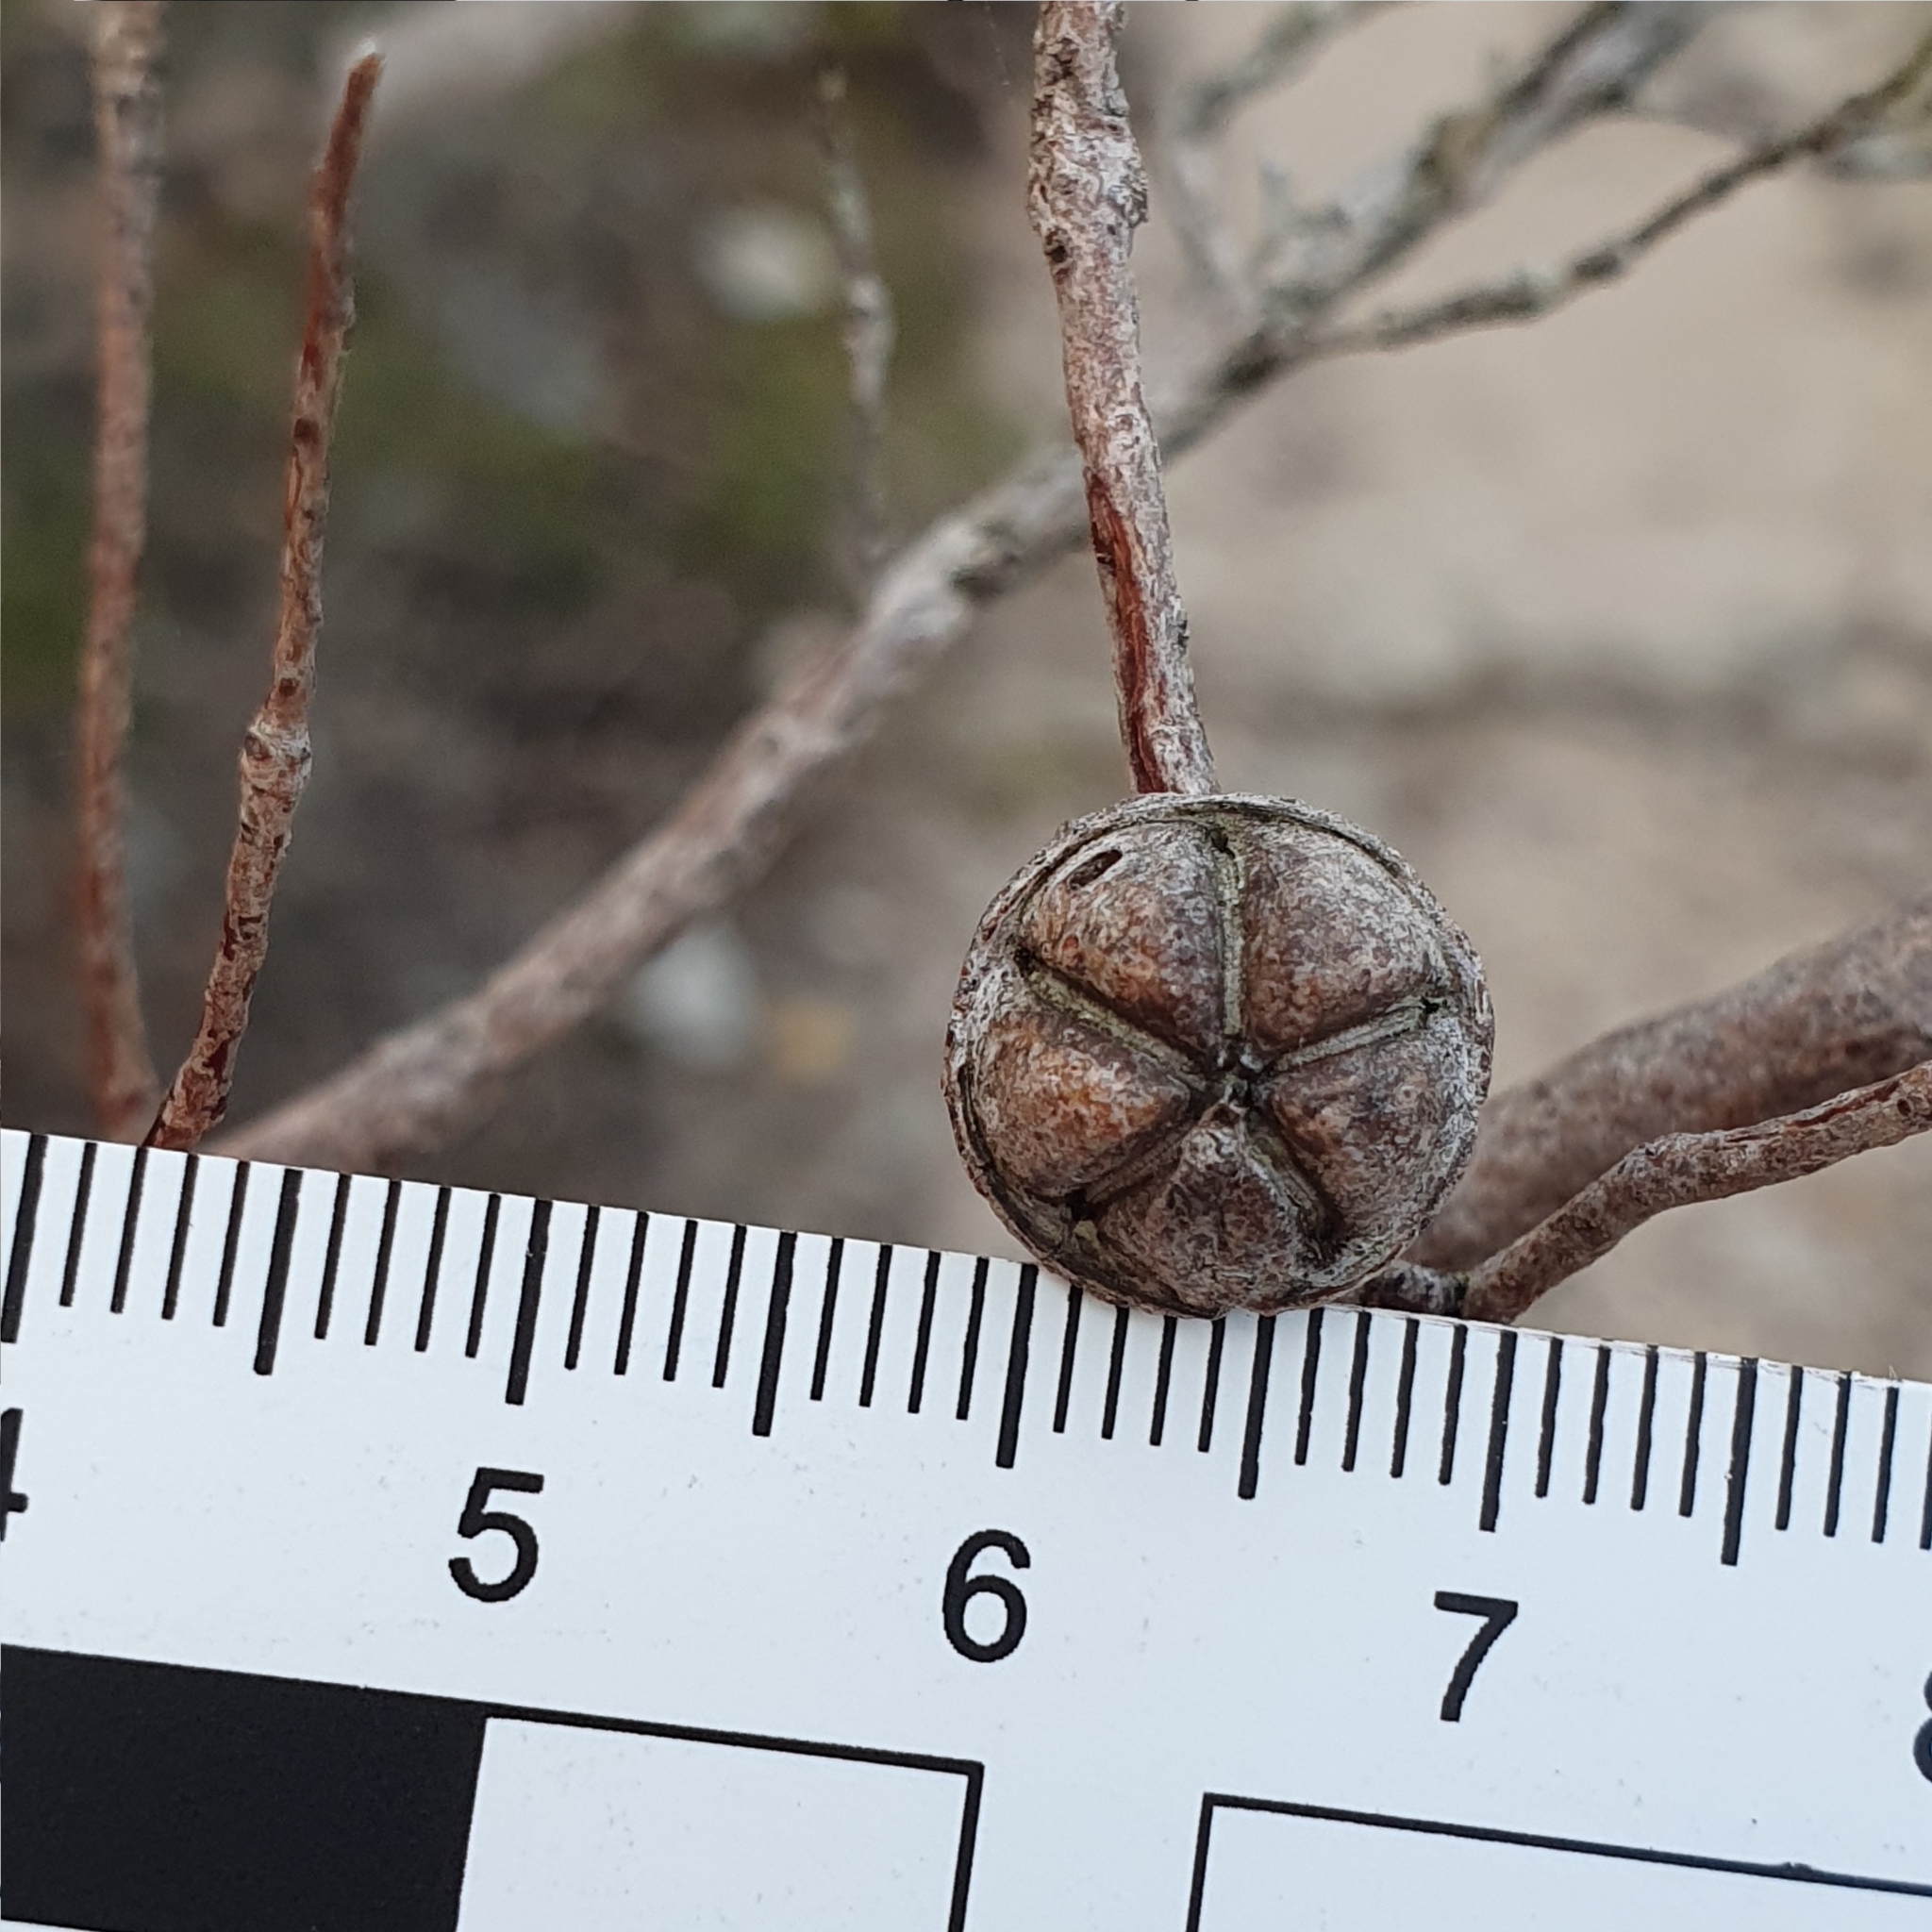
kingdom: Plantae
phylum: Tracheophyta
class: Magnoliopsida
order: Myrtales
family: Myrtaceae
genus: Leptospermum
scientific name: Leptospermum rotundifolium
